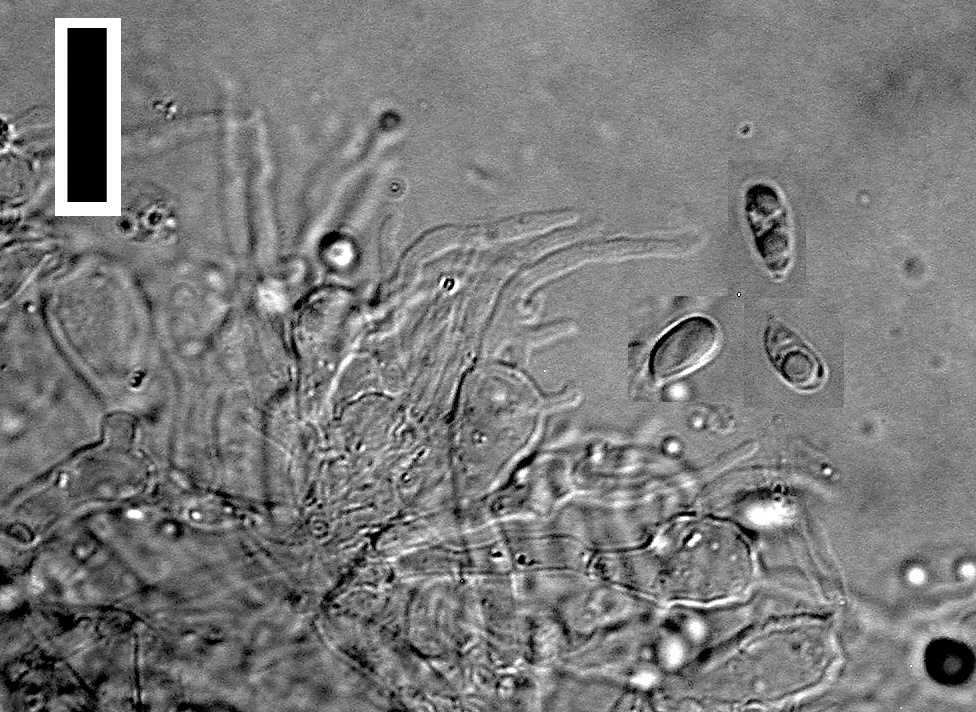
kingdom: Fungi
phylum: Basidiomycota
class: Agaricomycetes
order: Agaricales
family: Mycenaceae
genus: Mycena
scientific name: Mycena citrinomarginata
